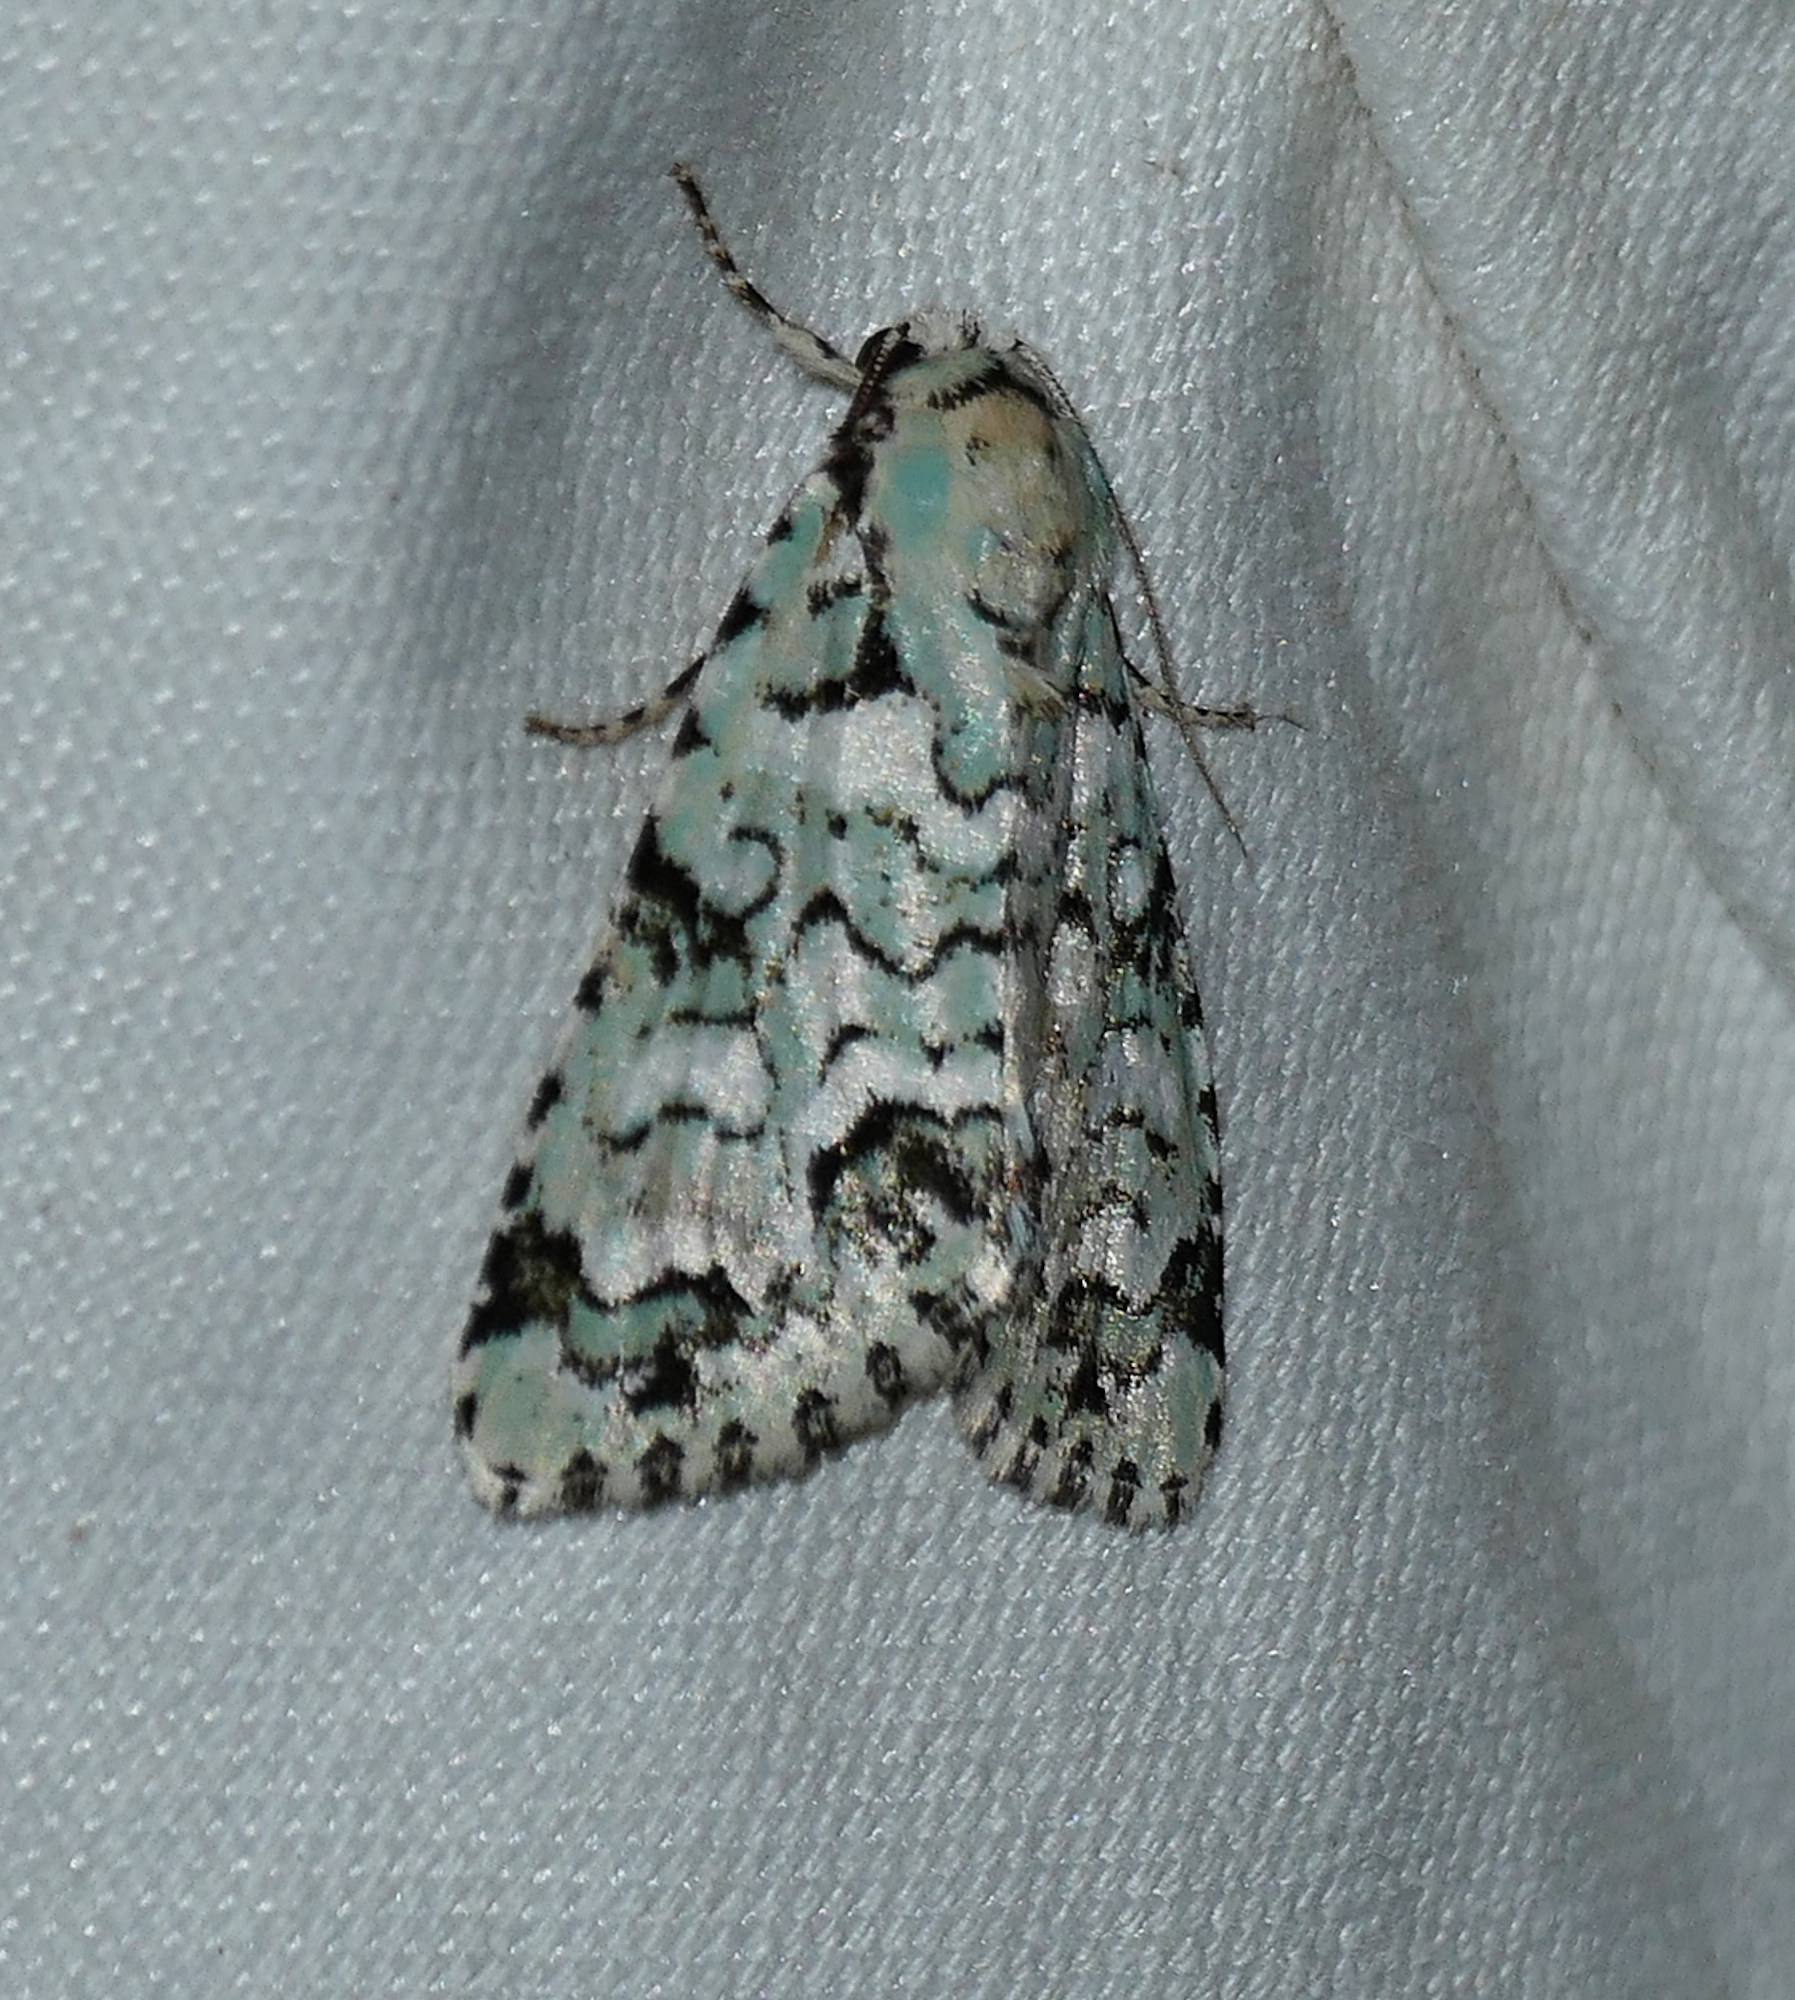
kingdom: Animalia
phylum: Arthropoda
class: Insecta
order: Lepidoptera
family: Noctuidae
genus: Chloronycta
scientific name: Chloronycta tybo
